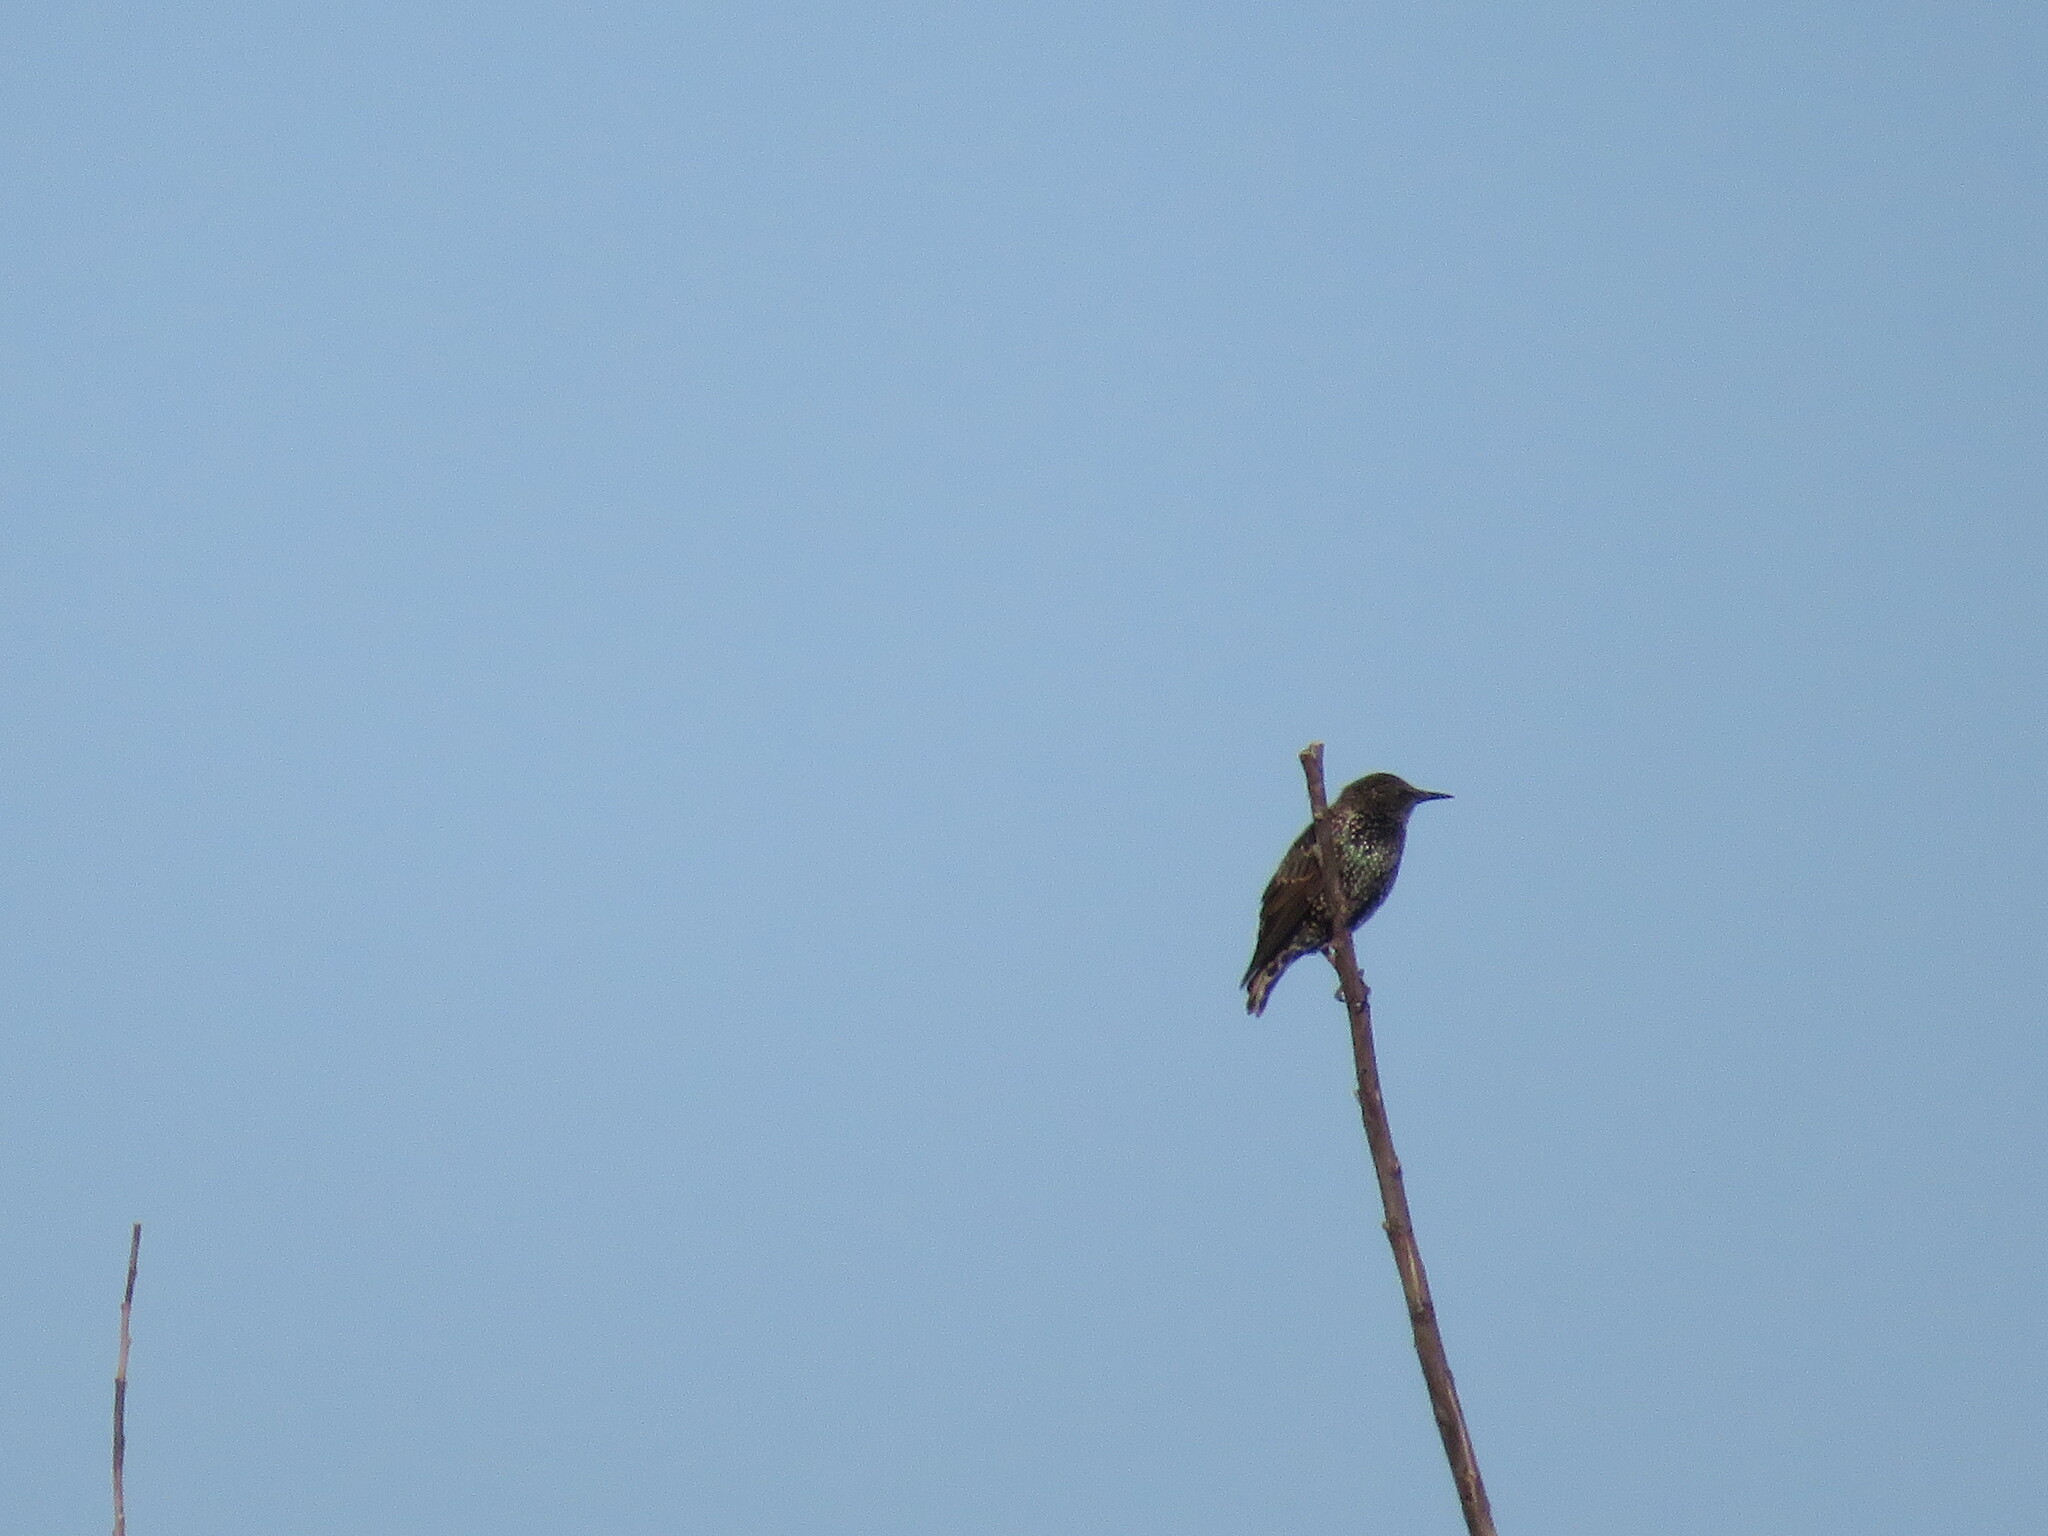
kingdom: Animalia
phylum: Chordata
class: Aves
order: Passeriformes
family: Sturnidae
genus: Sturnus
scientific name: Sturnus vulgaris
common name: Common starling
